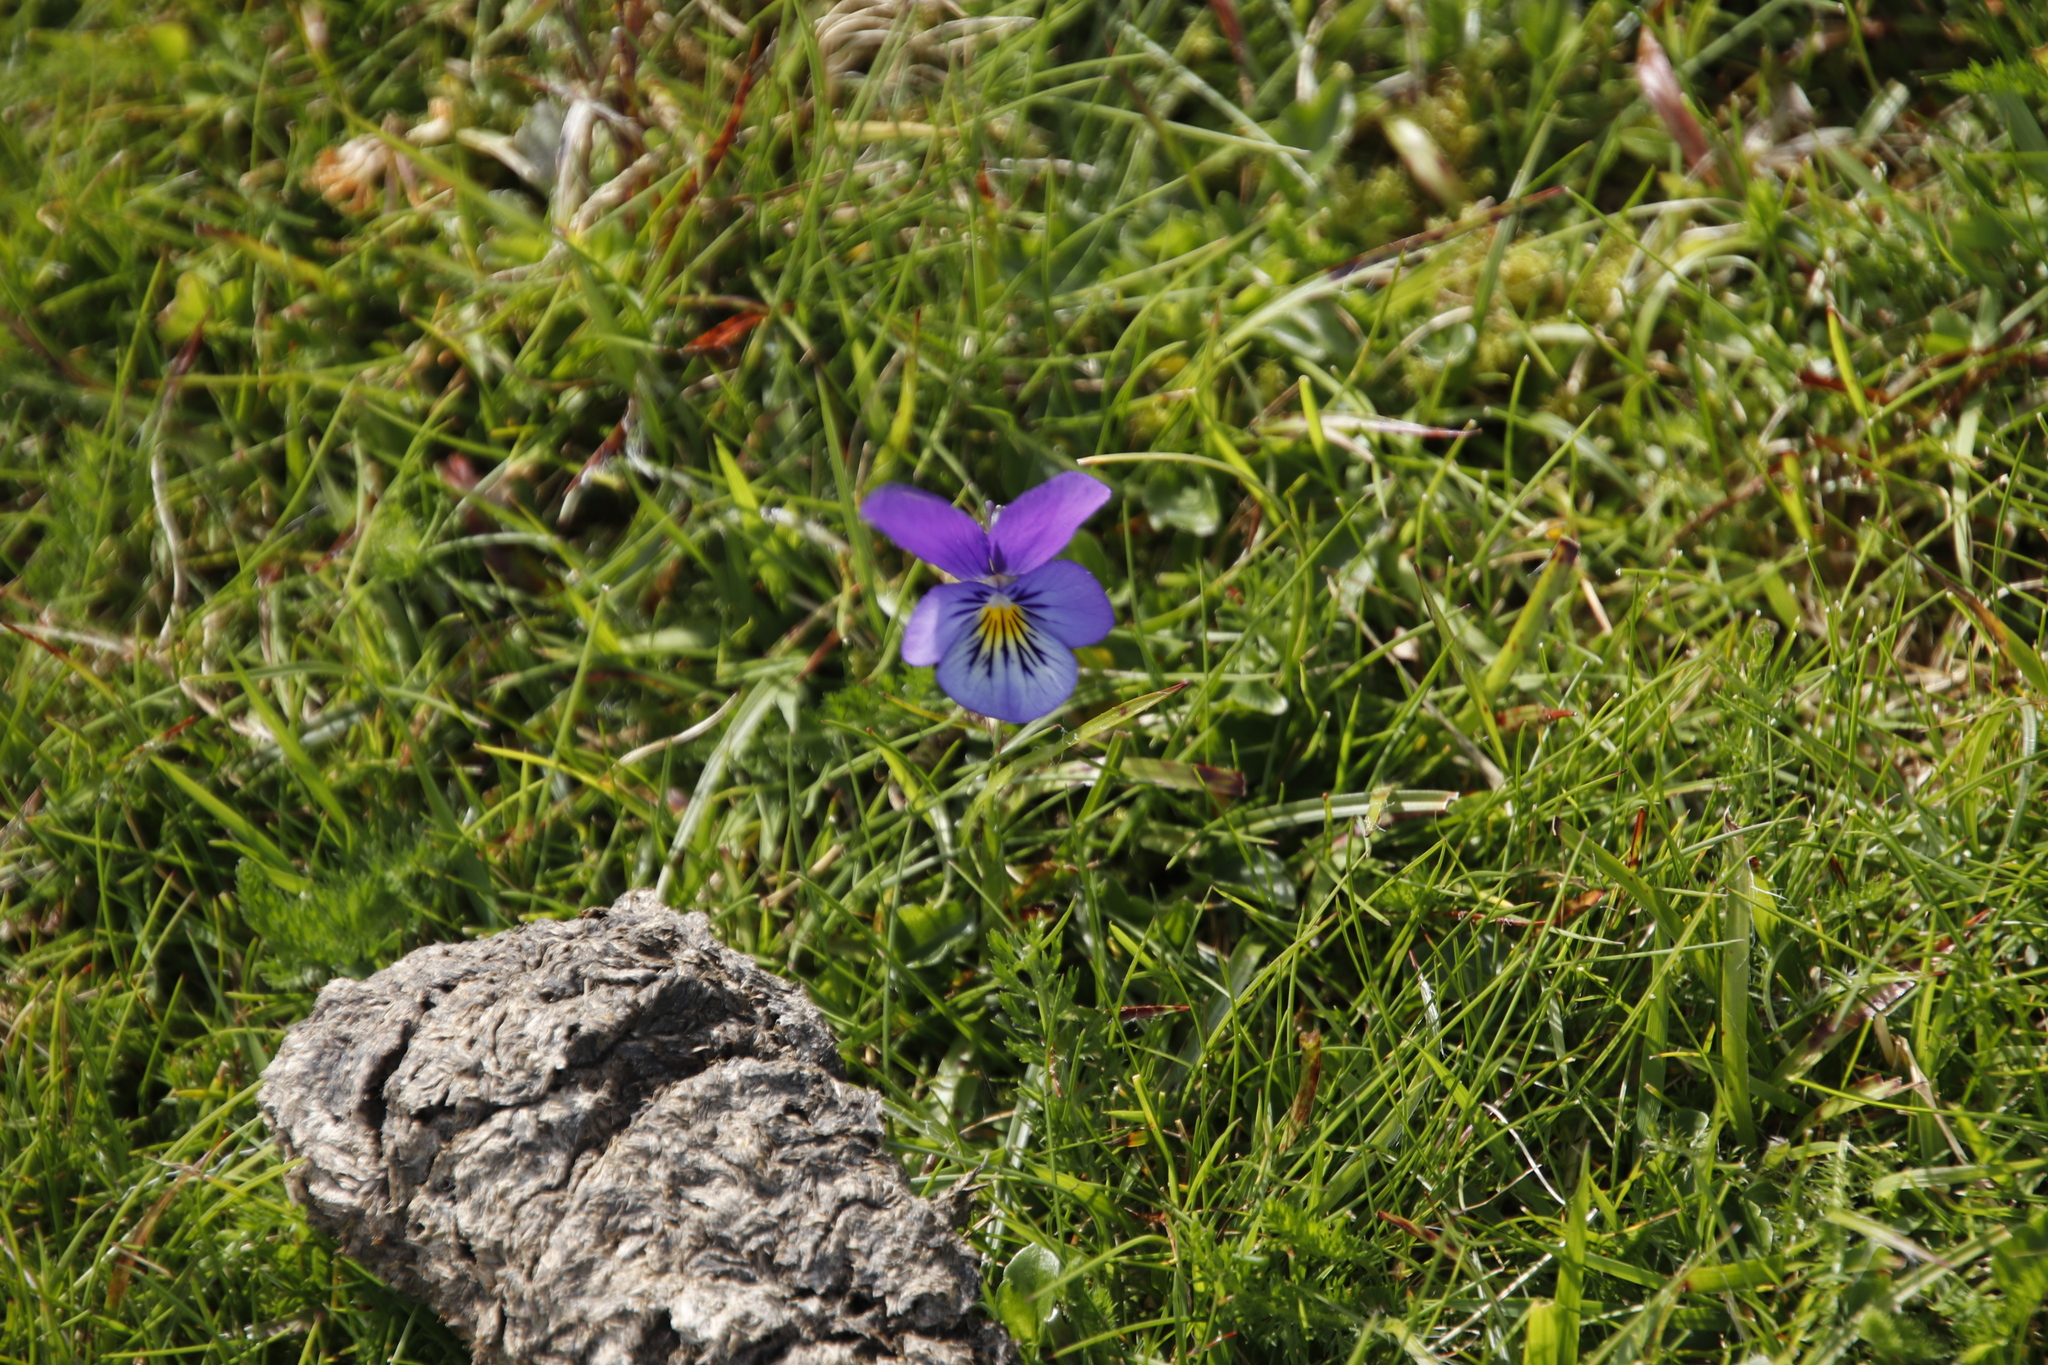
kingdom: Plantae
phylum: Tracheophyta
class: Magnoliopsida
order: Malpighiales
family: Violaceae
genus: Viola
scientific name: Viola lutea
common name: Mountain pansy
